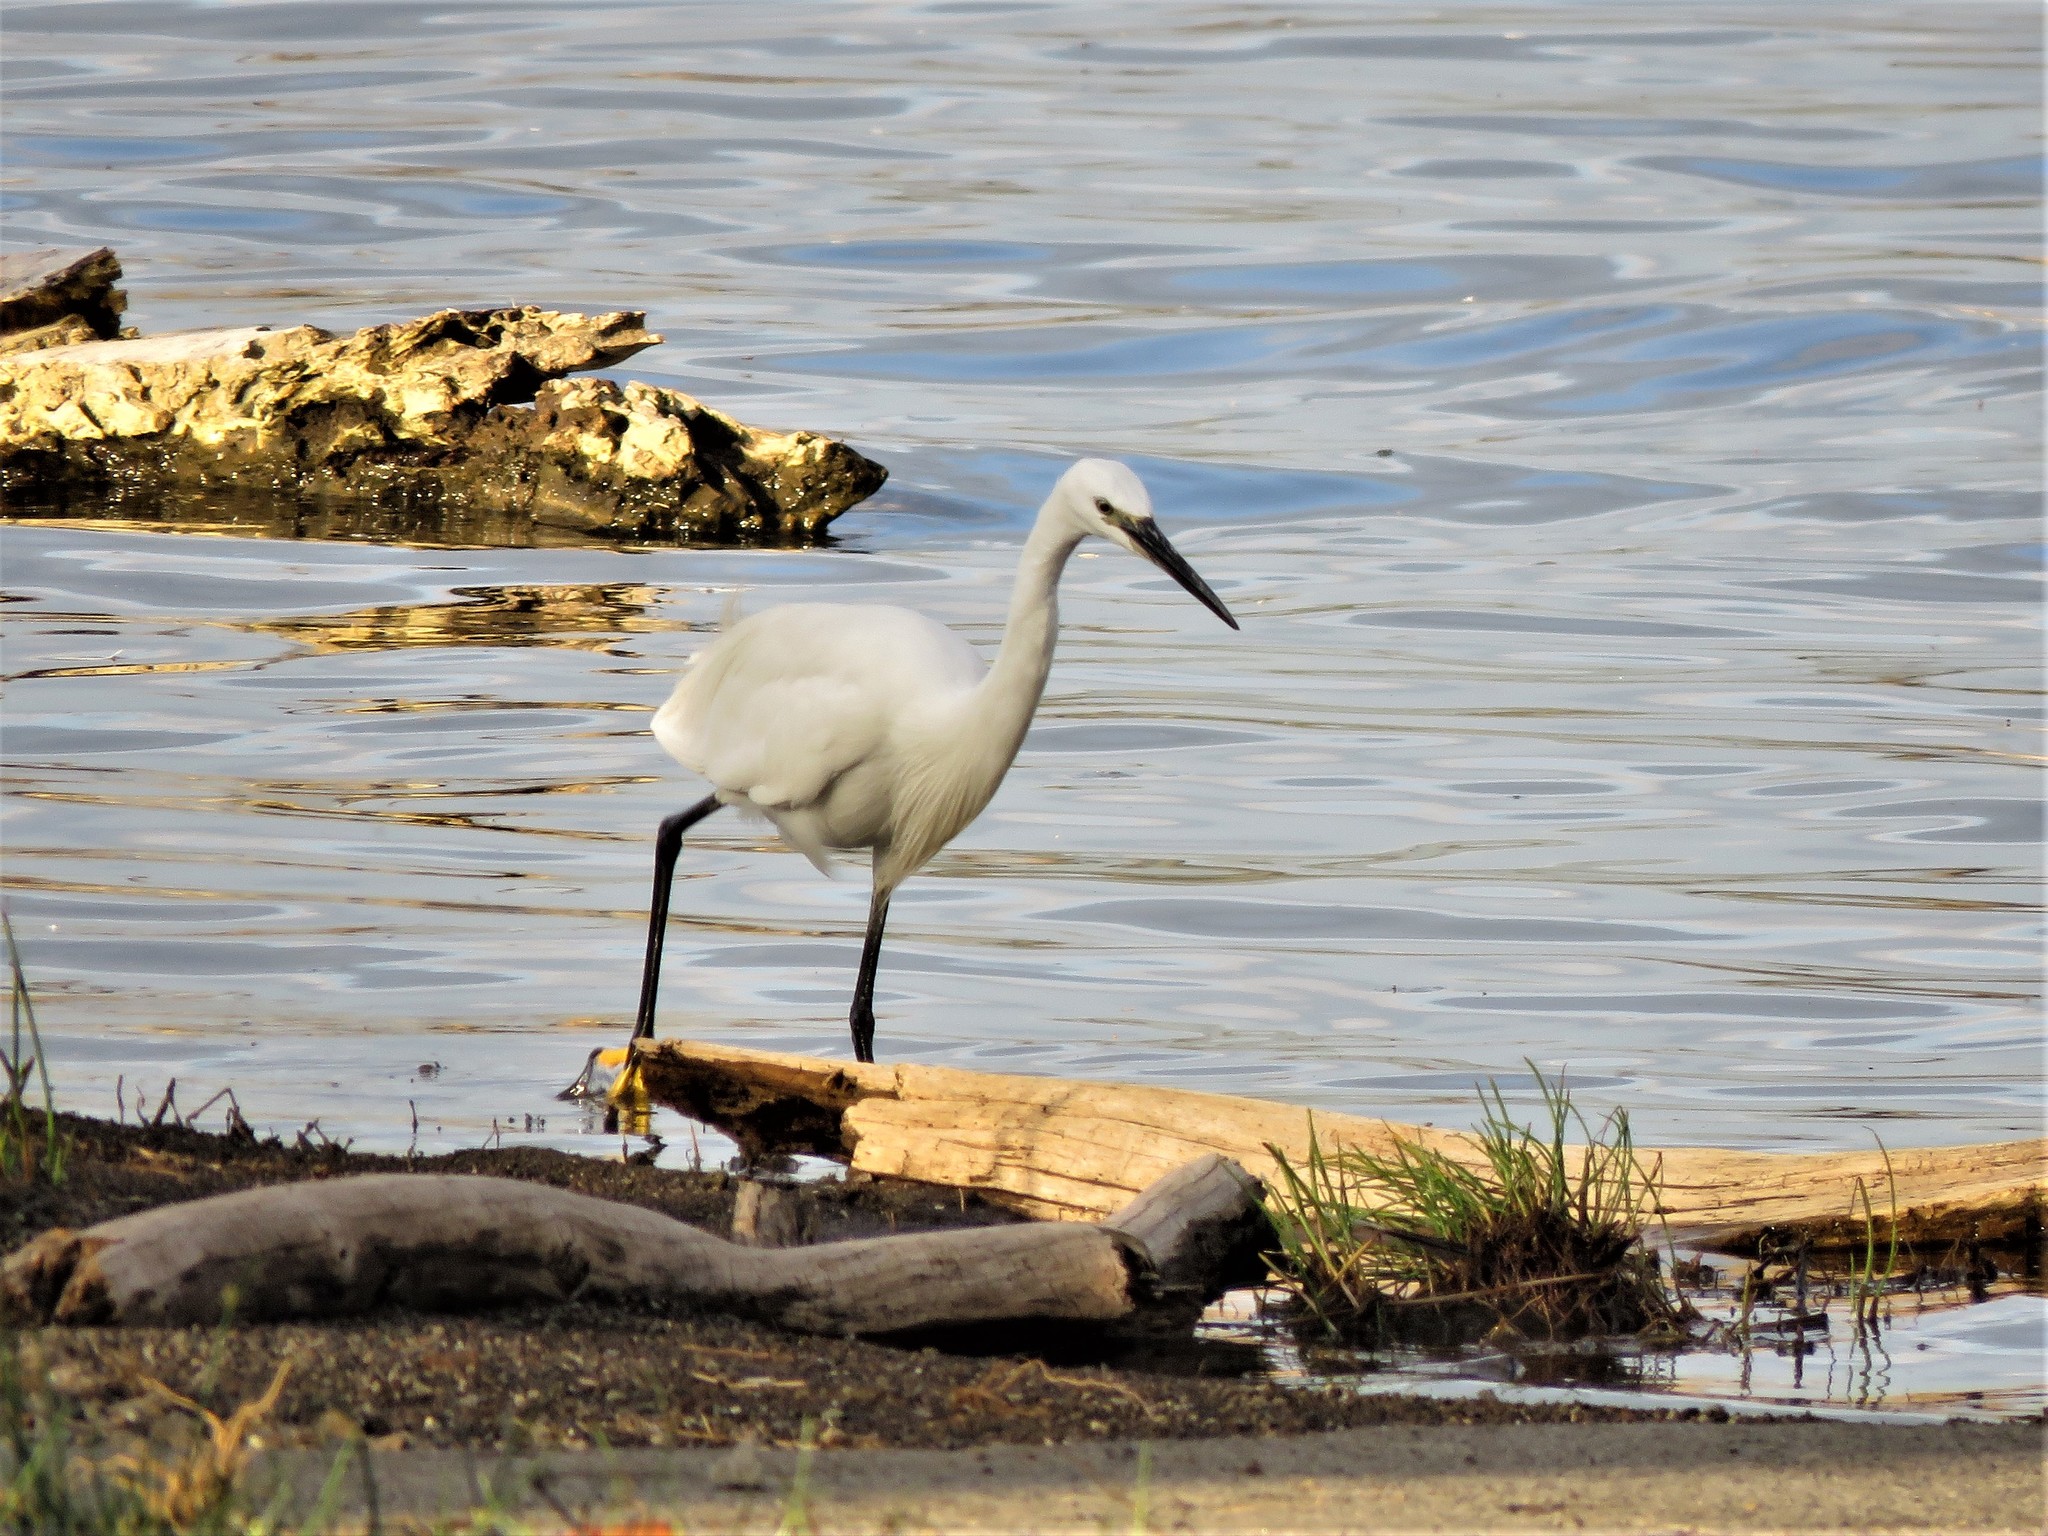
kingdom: Animalia
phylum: Chordata
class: Aves
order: Pelecaniformes
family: Ardeidae
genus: Egretta
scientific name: Egretta garzetta
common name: Little egret
